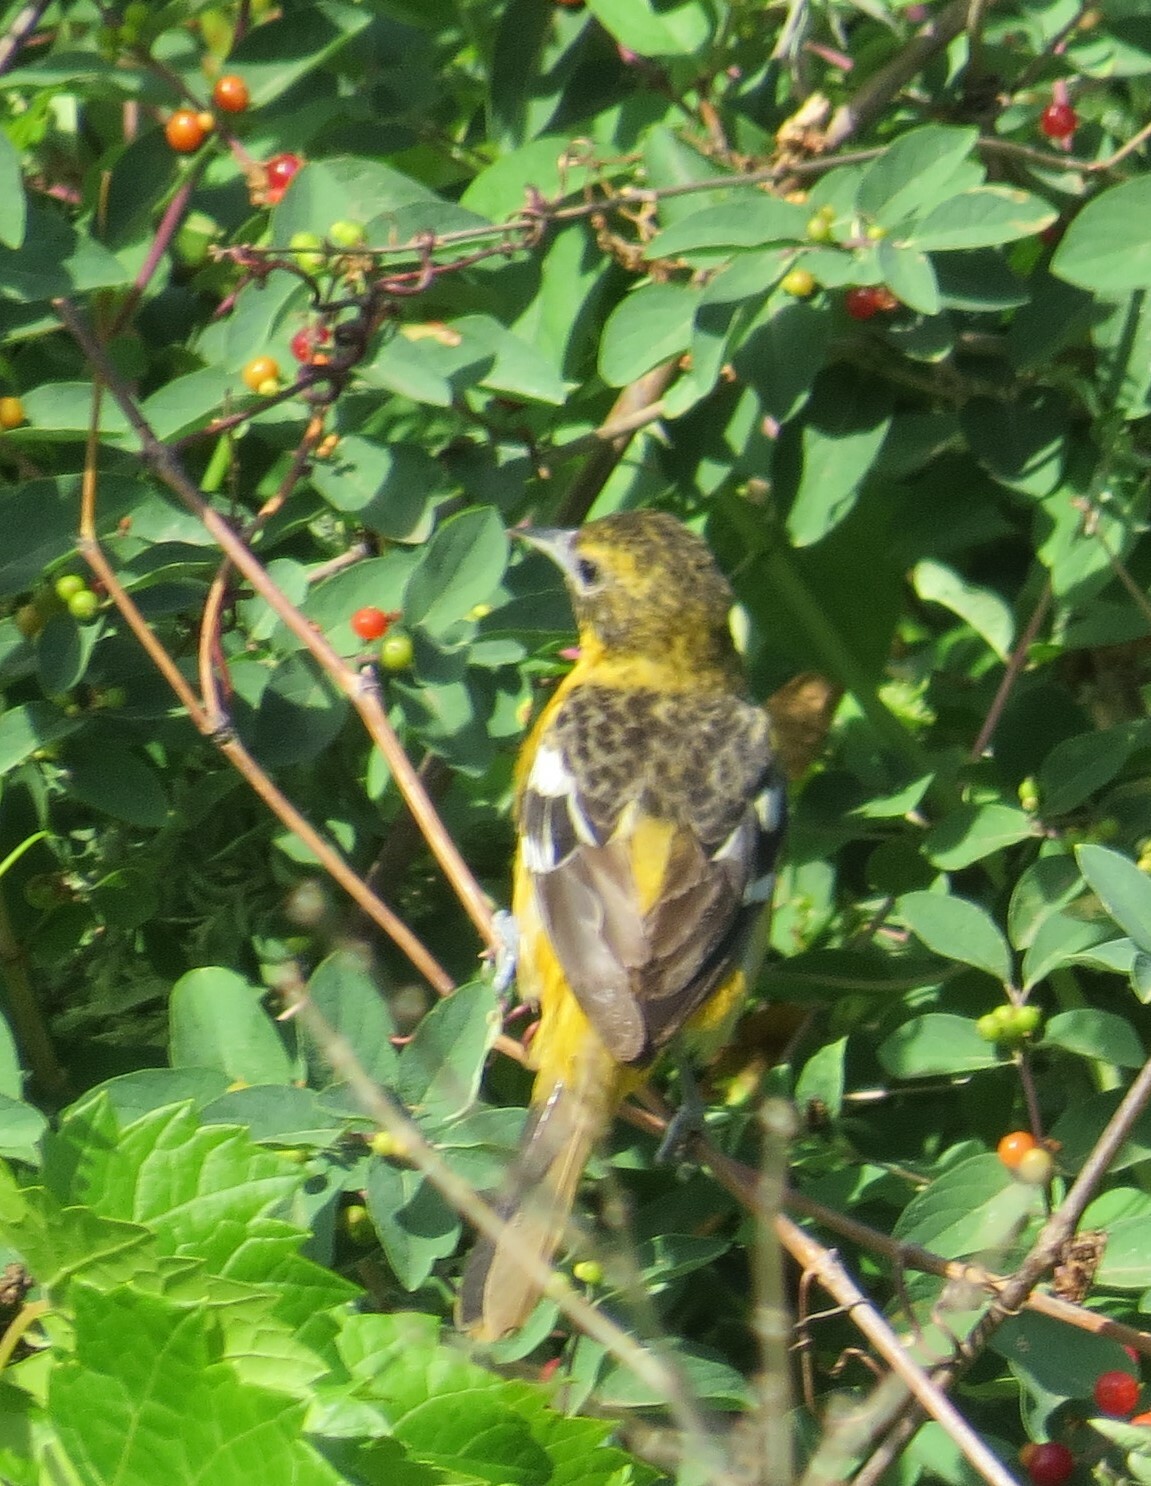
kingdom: Animalia
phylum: Chordata
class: Aves
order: Passeriformes
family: Icteridae
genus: Icterus
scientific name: Icterus galbula
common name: Baltimore oriole
